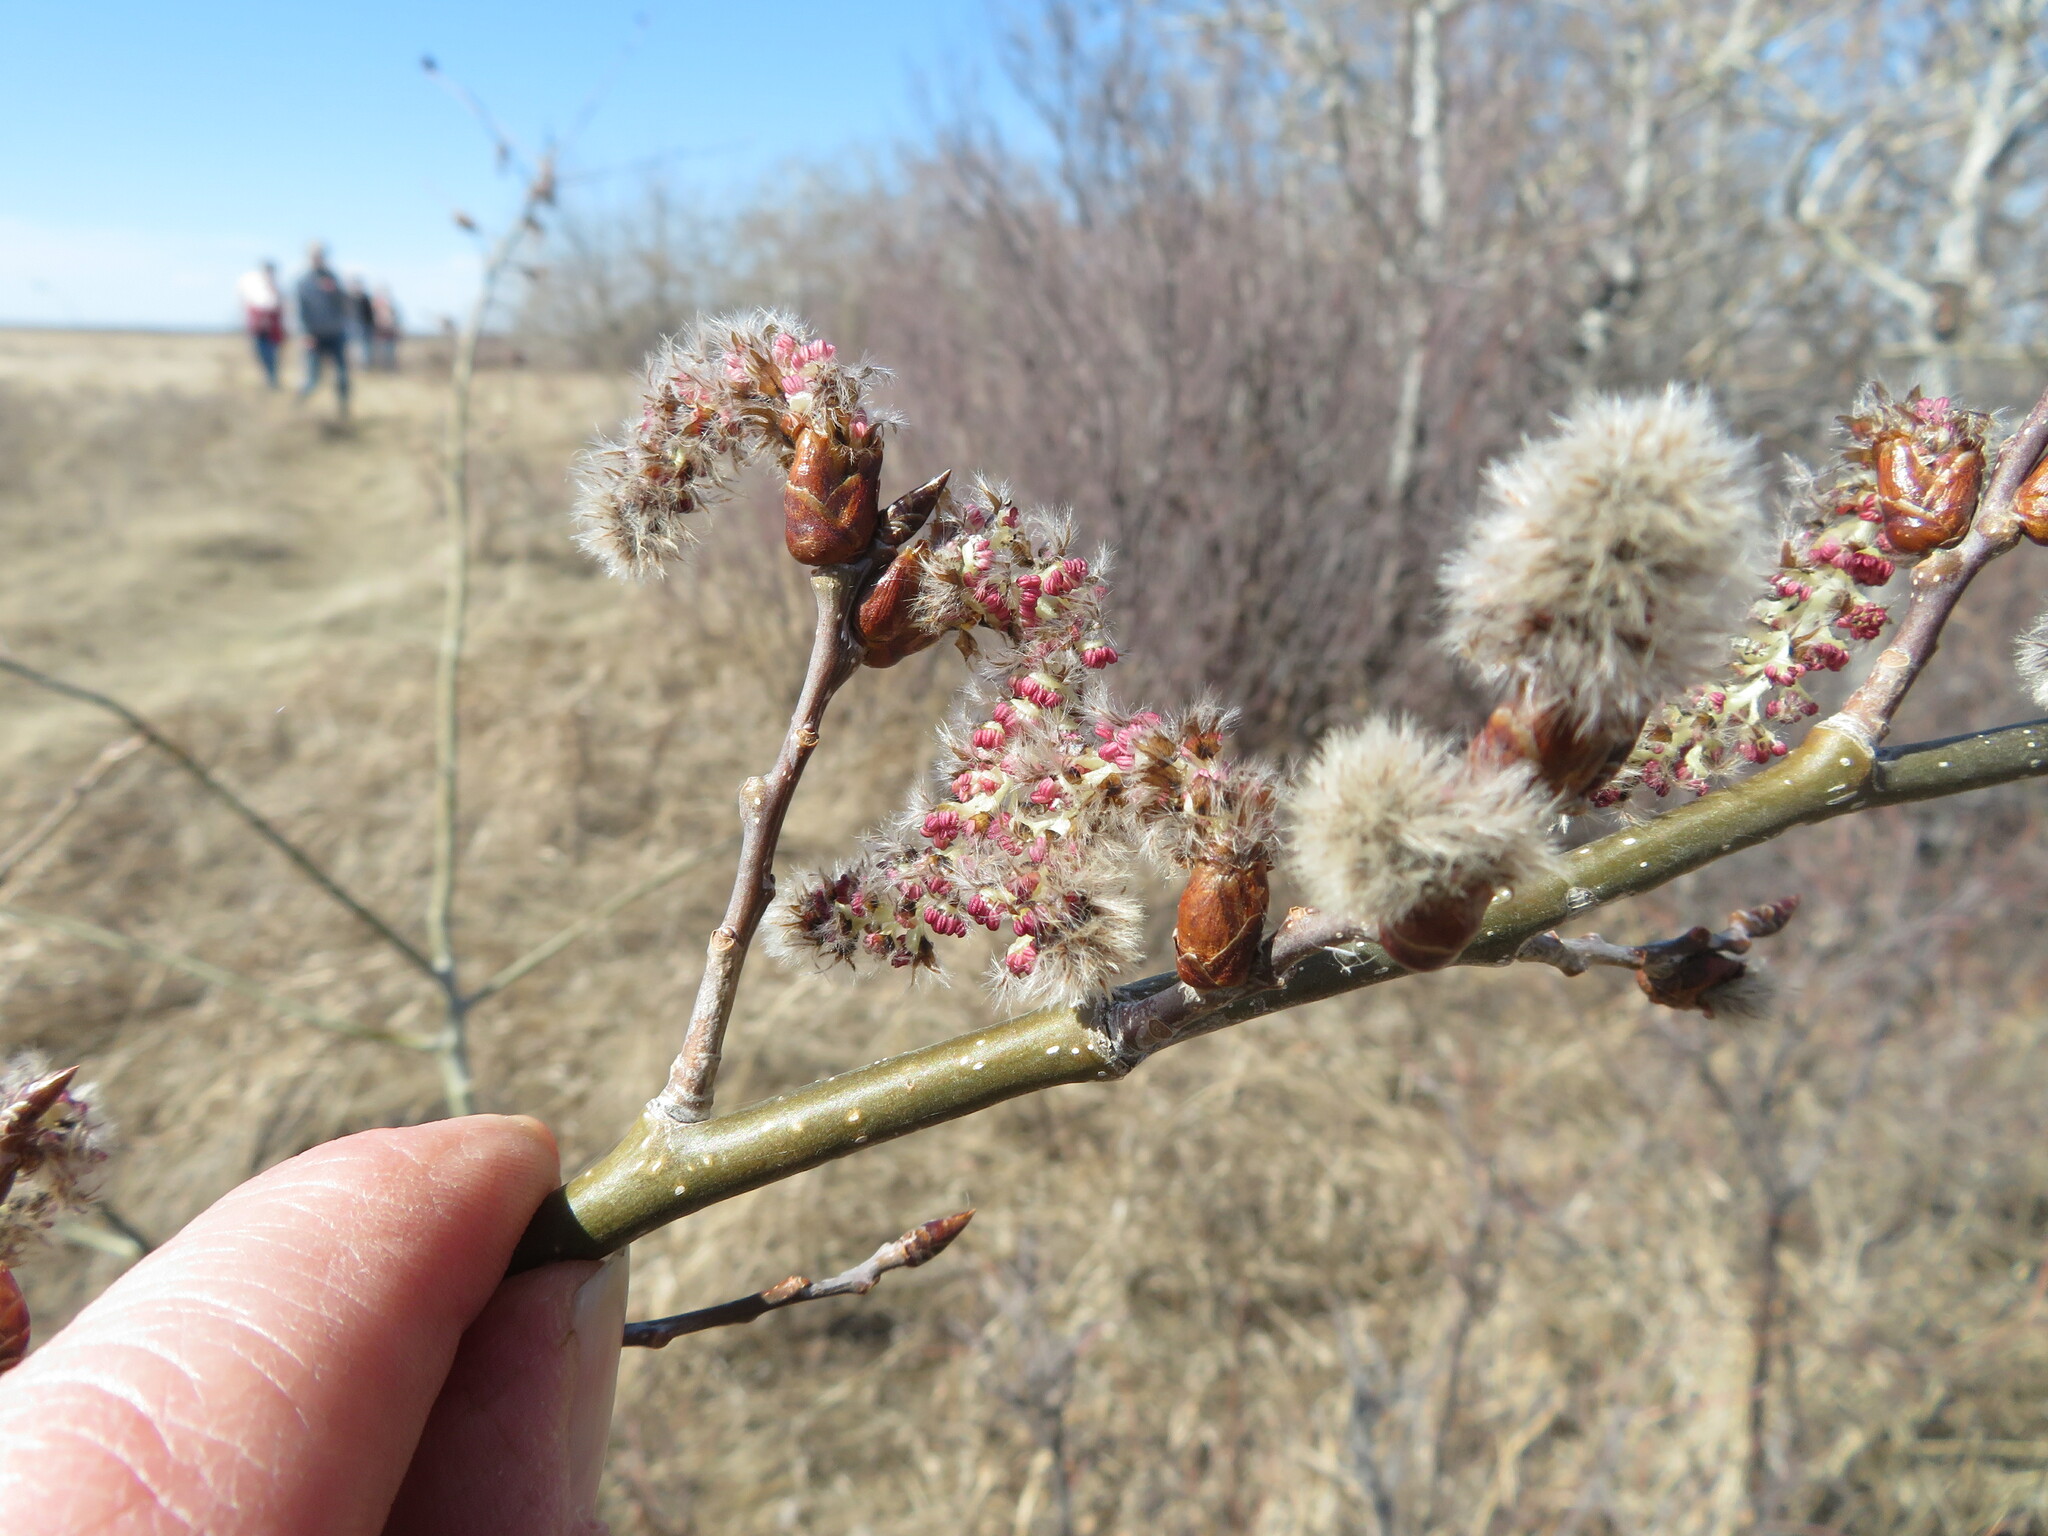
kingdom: Plantae
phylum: Tracheophyta
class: Magnoliopsida
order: Malpighiales
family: Salicaceae
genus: Populus
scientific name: Populus tremuloides
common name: Quaking aspen
